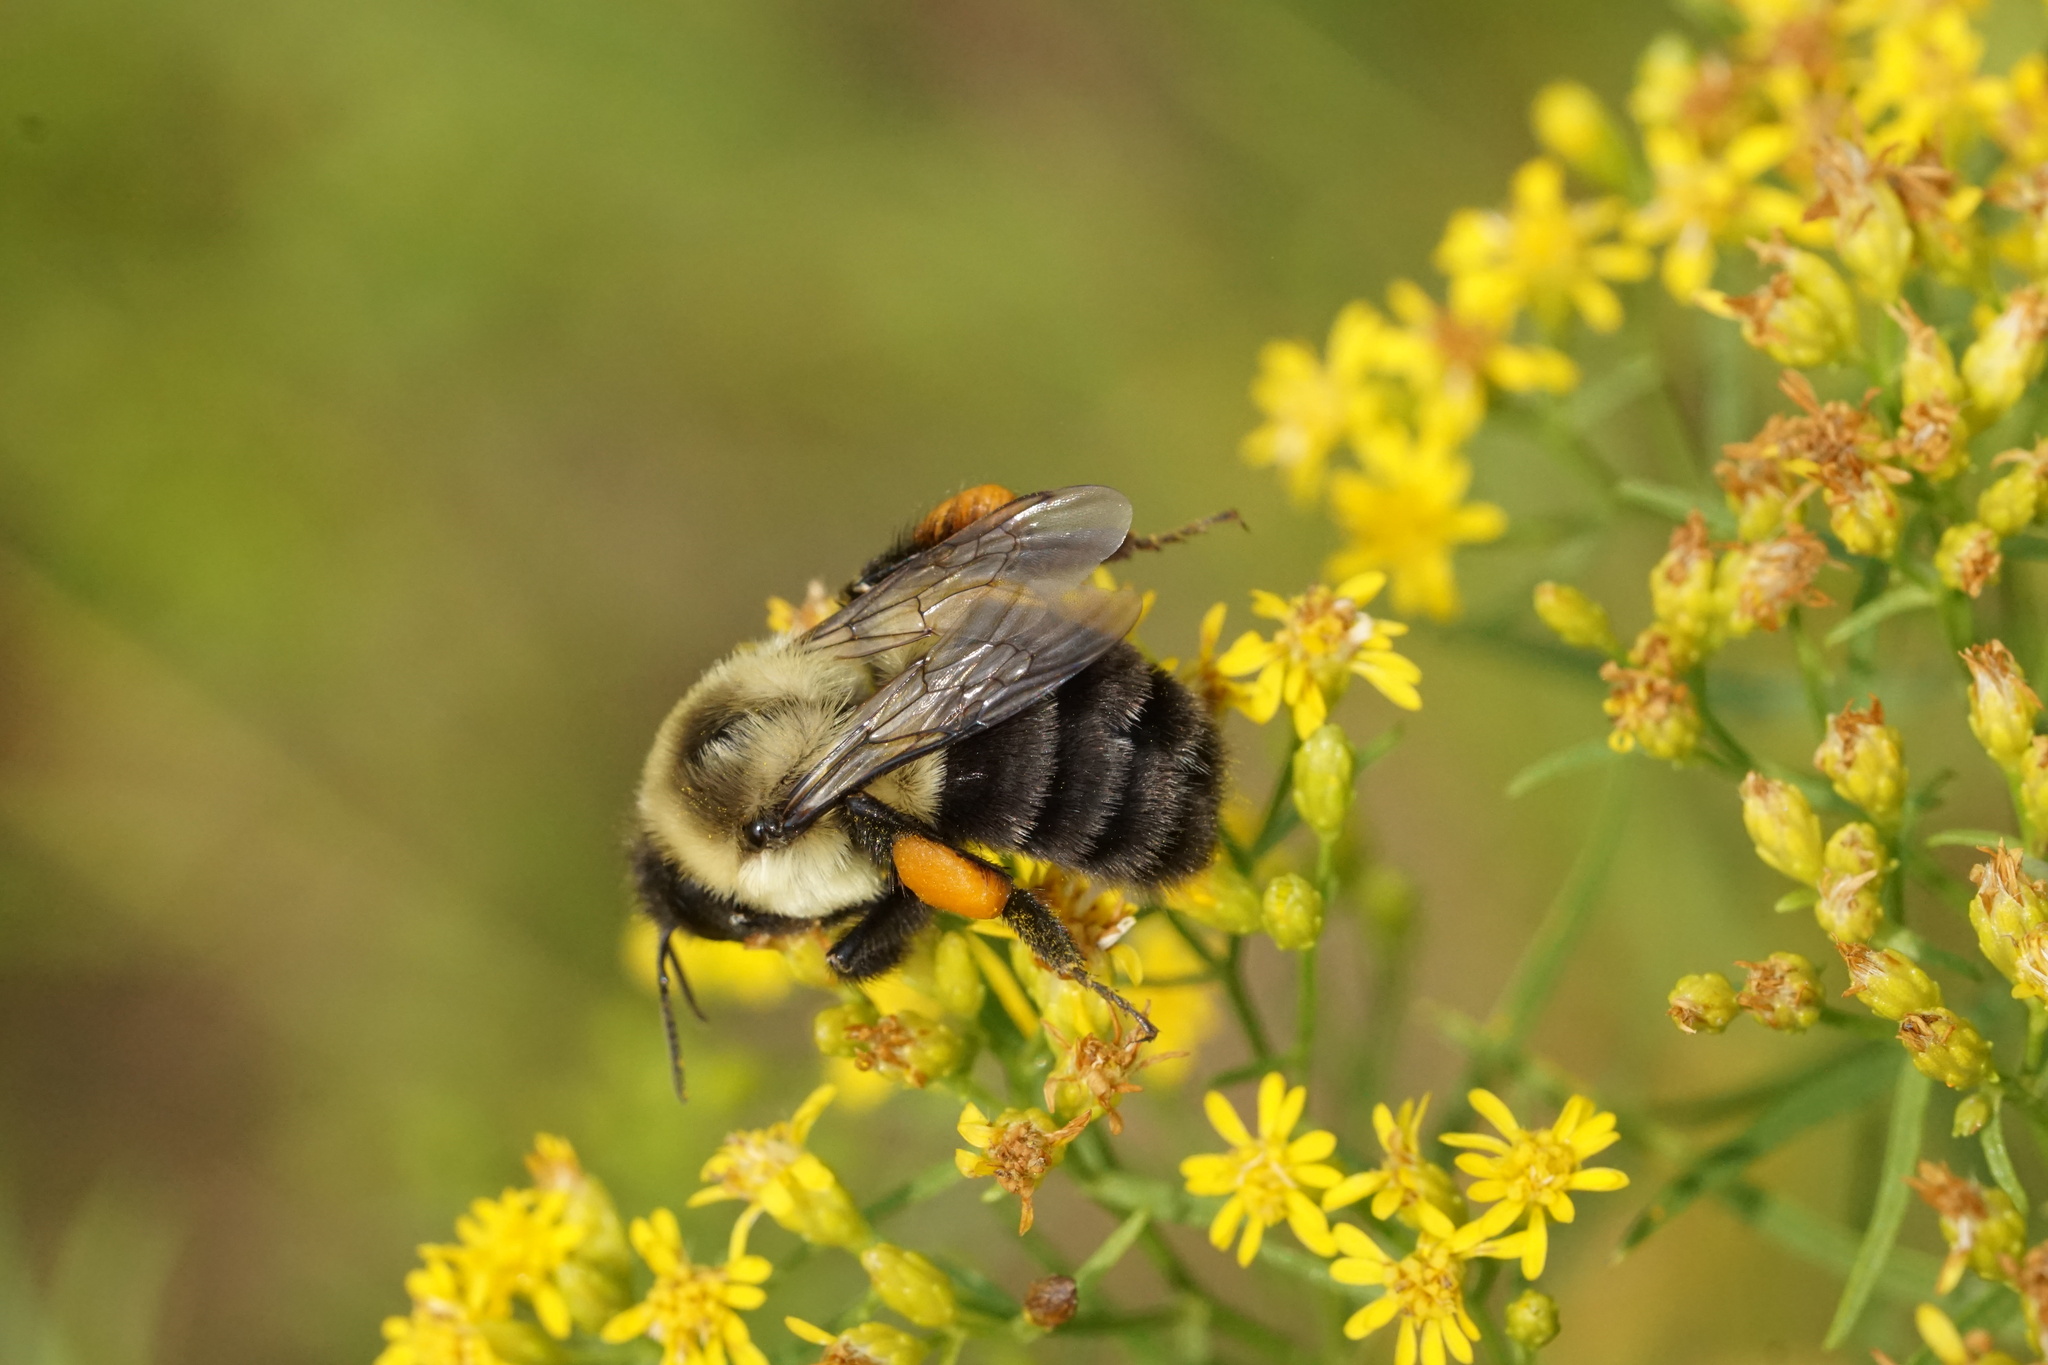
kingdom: Animalia
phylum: Arthropoda
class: Insecta
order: Hymenoptera
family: Apidae
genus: Bombus
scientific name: Bombus impatiens
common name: Common eastern bumble bee
